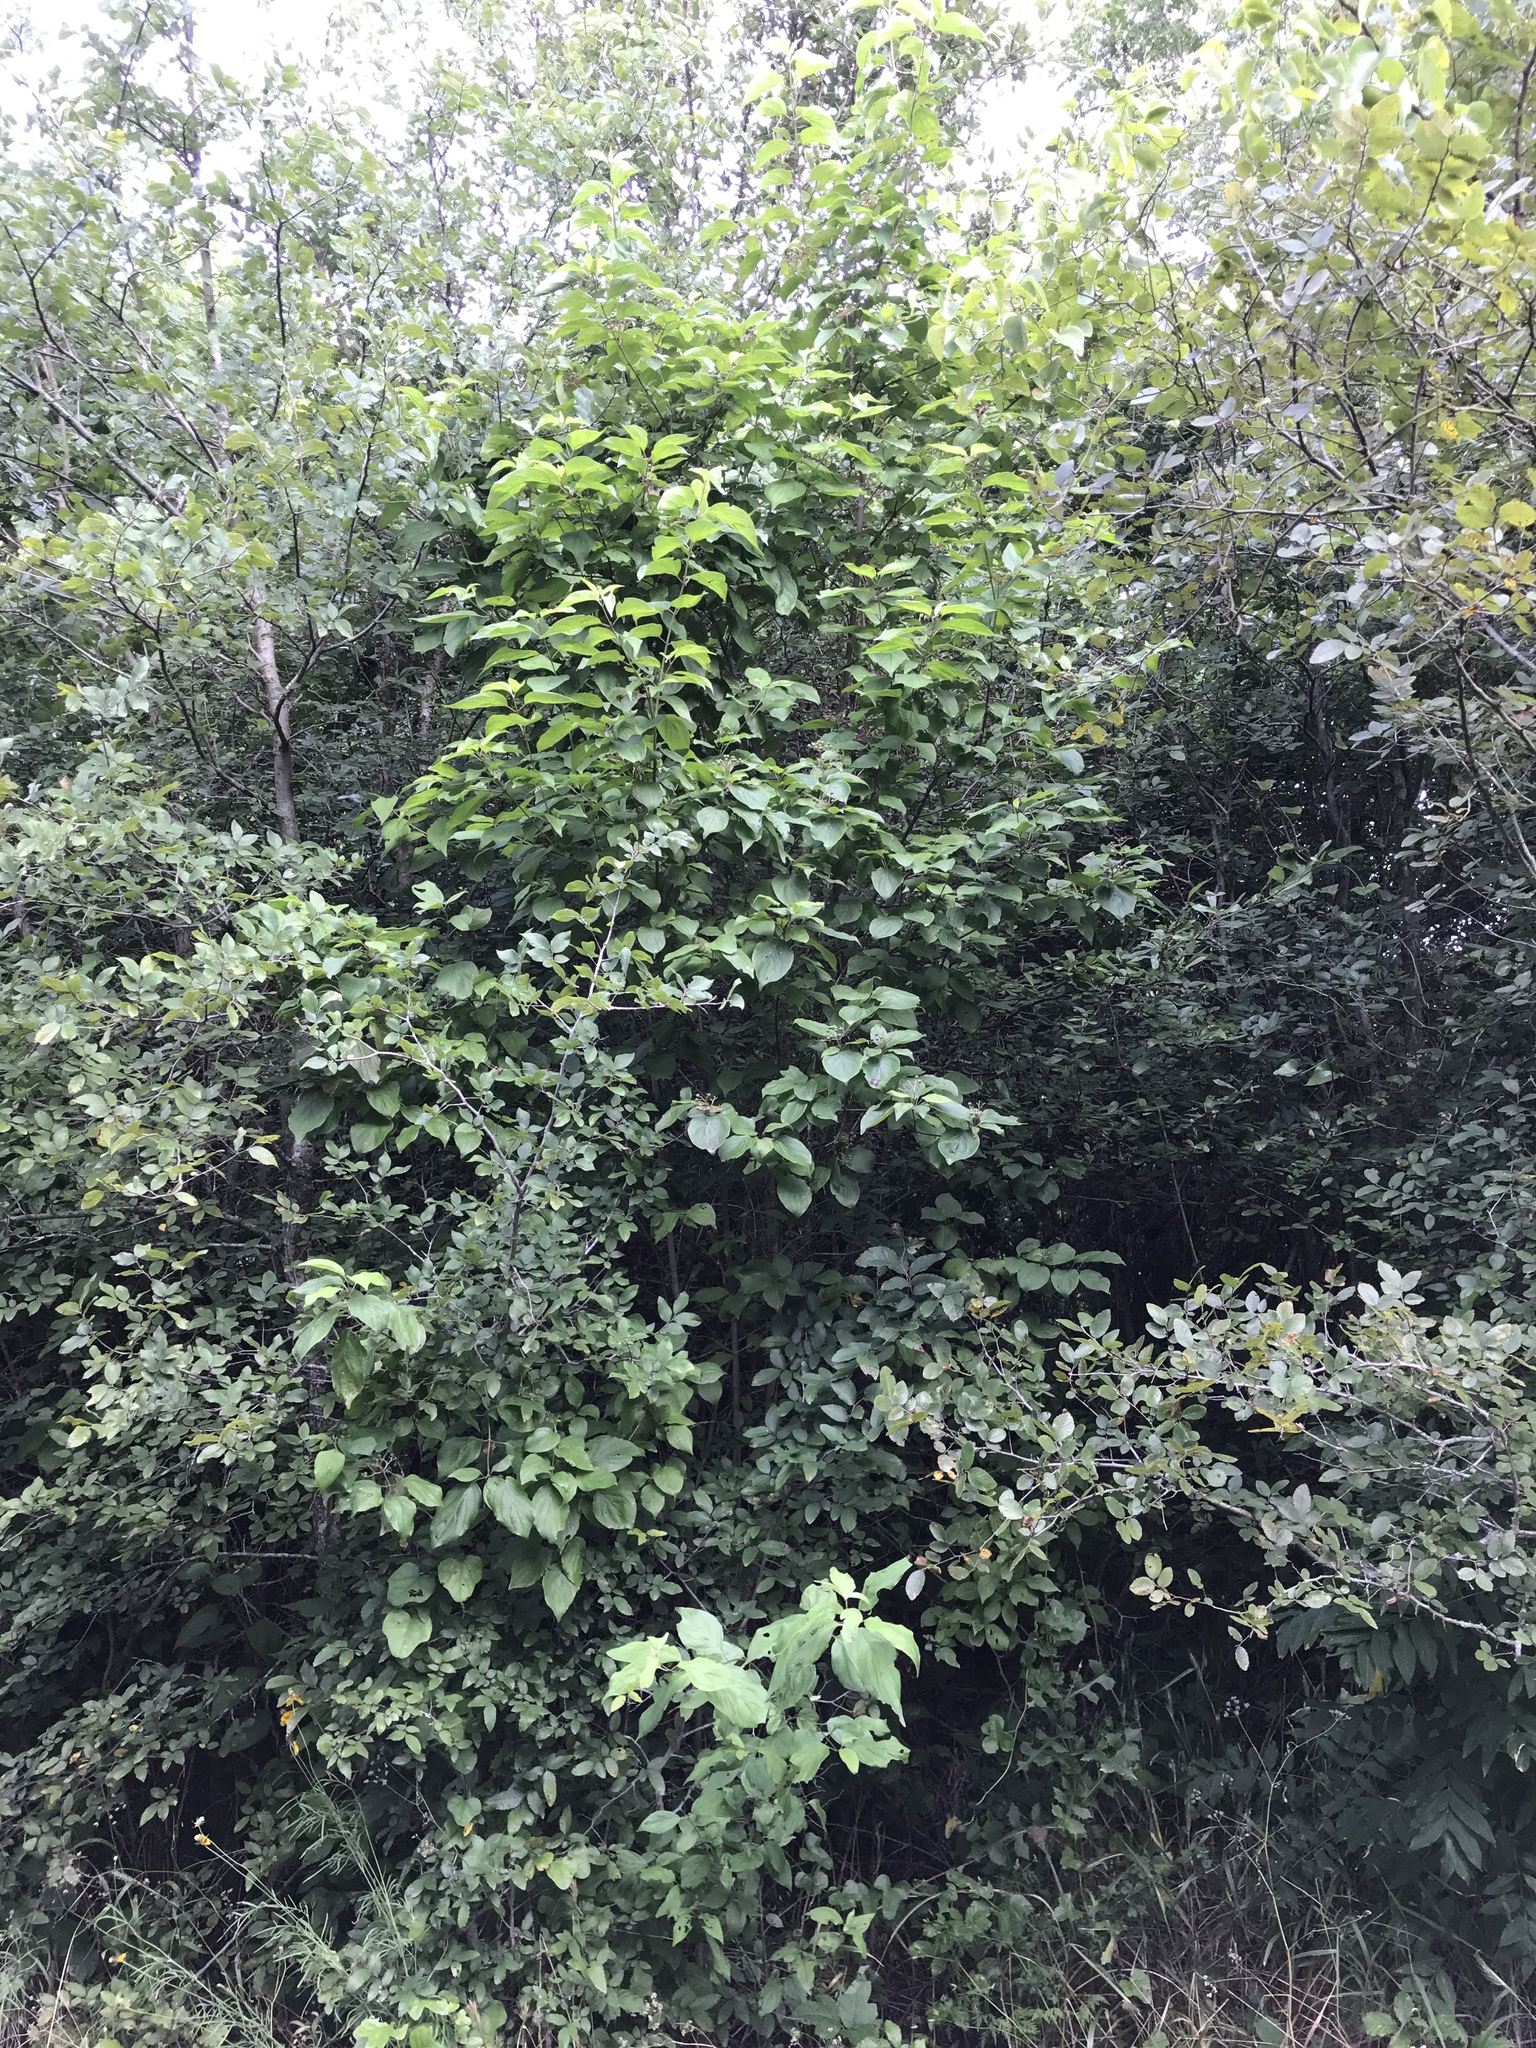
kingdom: Plantae
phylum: Tracheophyta
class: Magnoliopsida
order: Cornales
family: Cornaceae
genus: Cornus
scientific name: Cornus drummondii
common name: Rough-leaf dogwood
